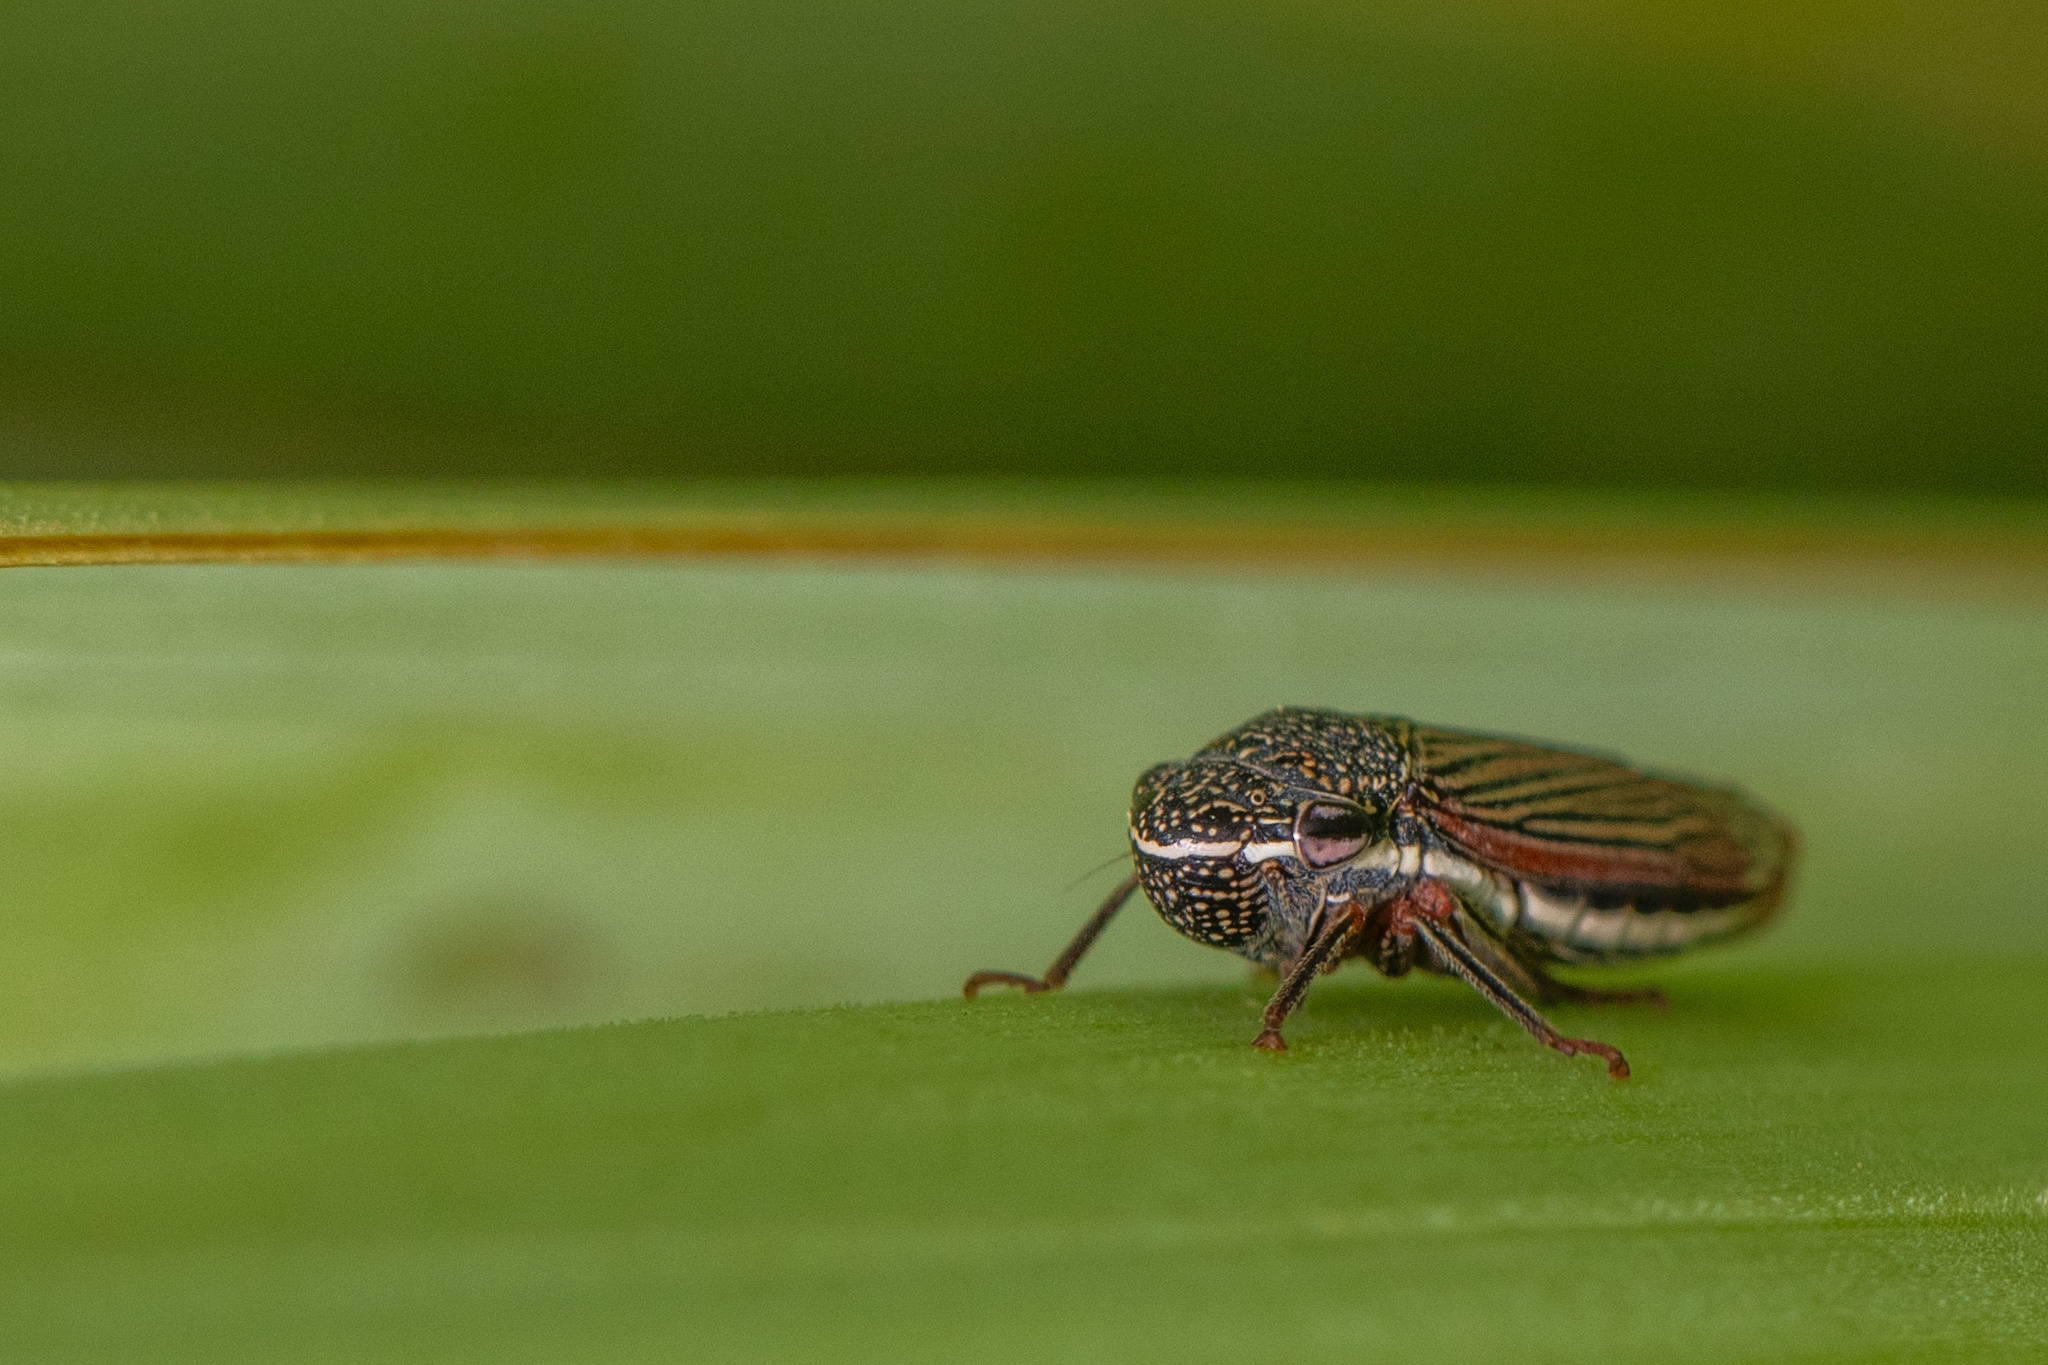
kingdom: Animalia
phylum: Arthropoda
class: Insecta
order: Hemiptera
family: Cicadellidae
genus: Cuerna
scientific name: Cuerna costalis
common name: Lateral-lined sharpshooter
